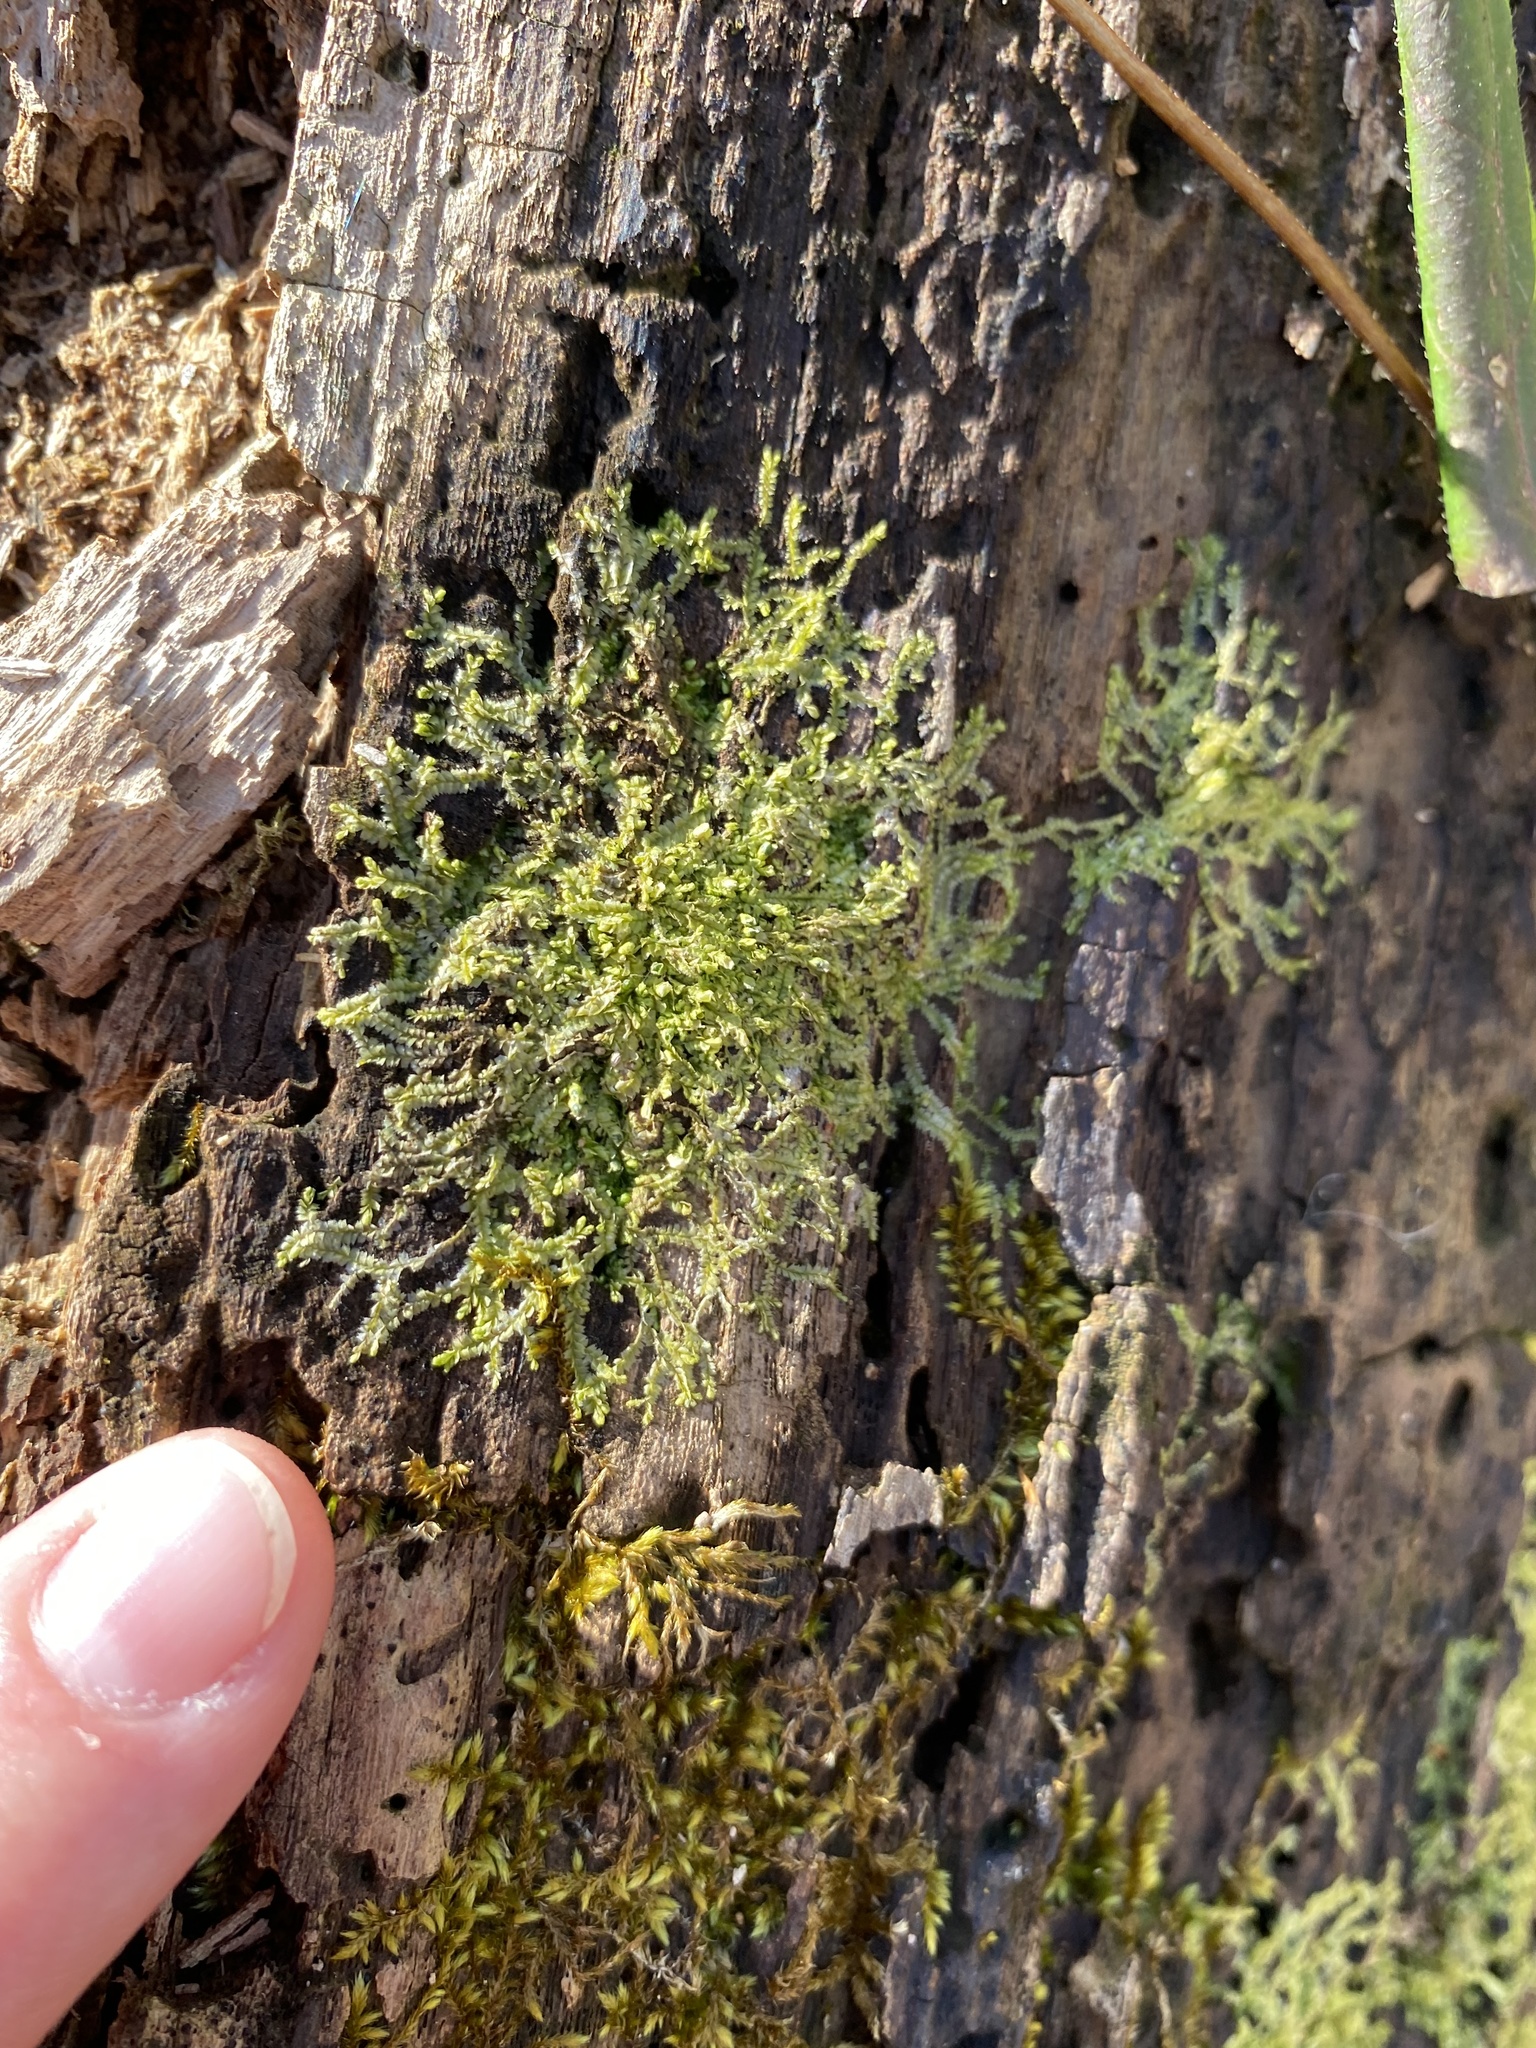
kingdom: Plantae
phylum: Marchantiophyta
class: Jungermanniopsida
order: Jungermanniales
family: Lophocoleaceae
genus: Lophocolea
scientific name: Lophocolea heterophylla
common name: Variable-leaved crestwort
